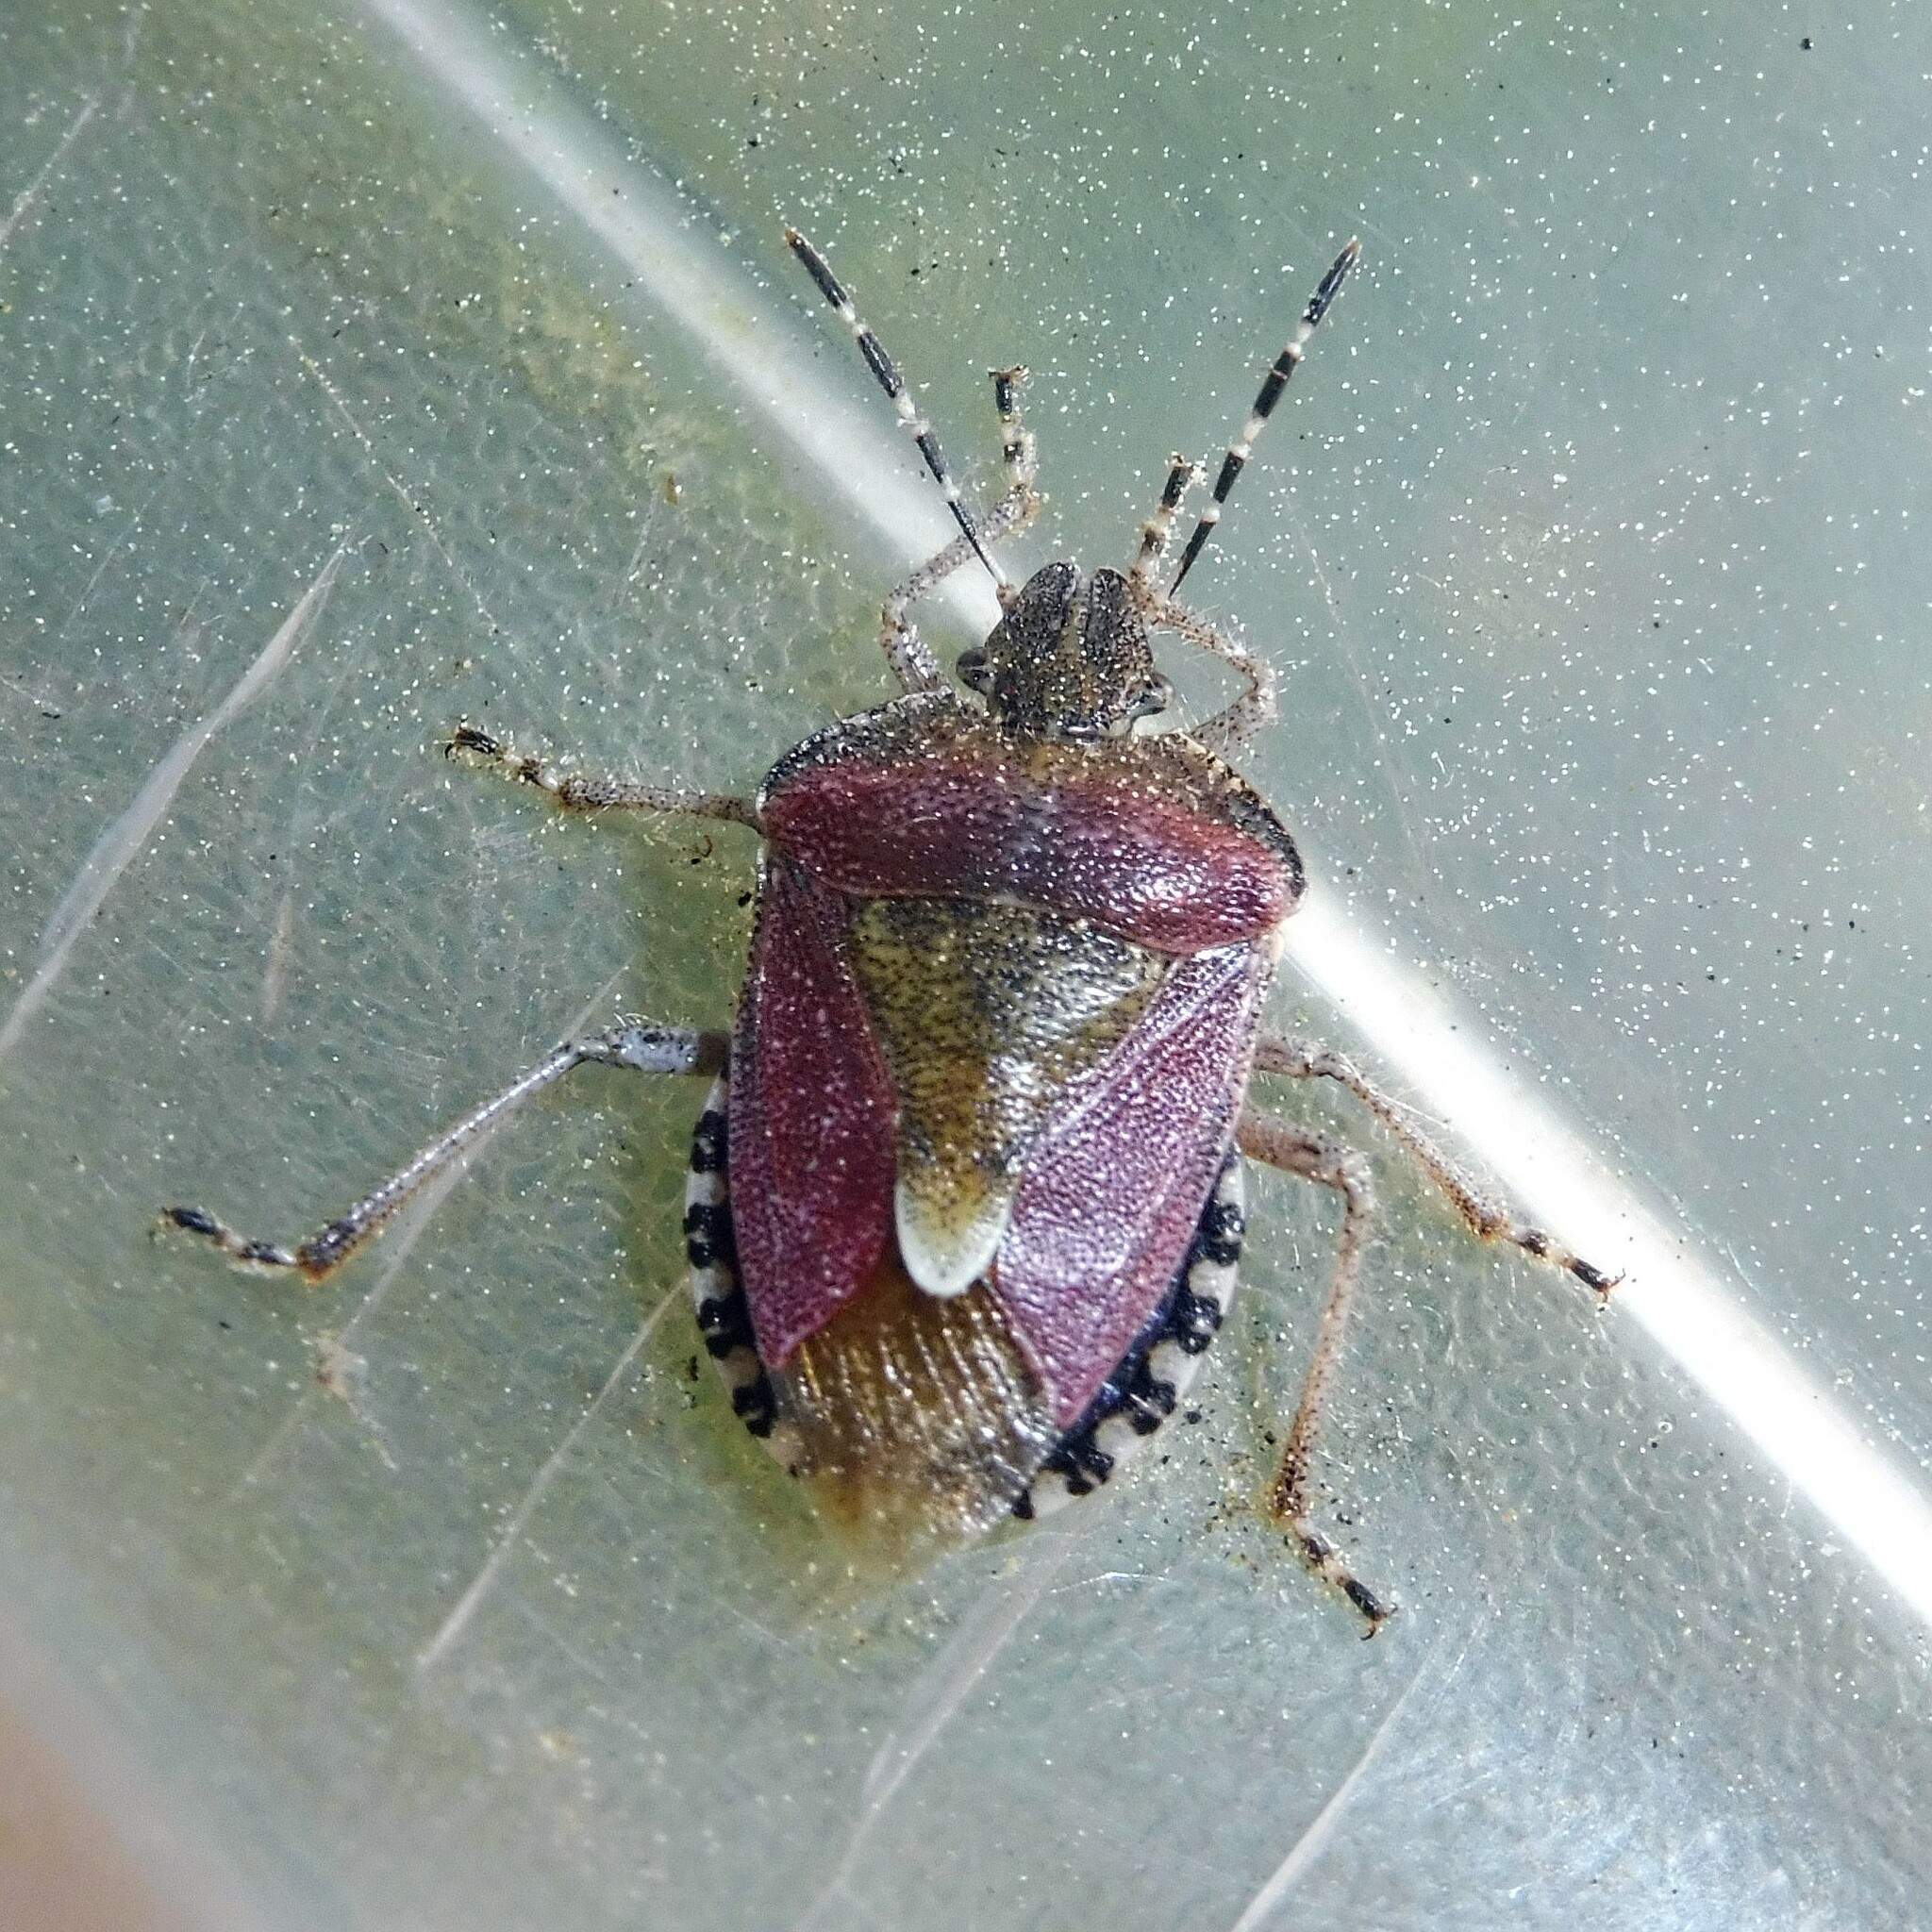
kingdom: Animalia
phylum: Arthropoda
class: Insecta
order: Hemiptera
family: Pentatomidae
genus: Dolycoris
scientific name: Dolycoris baccarum
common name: Sloe bug
